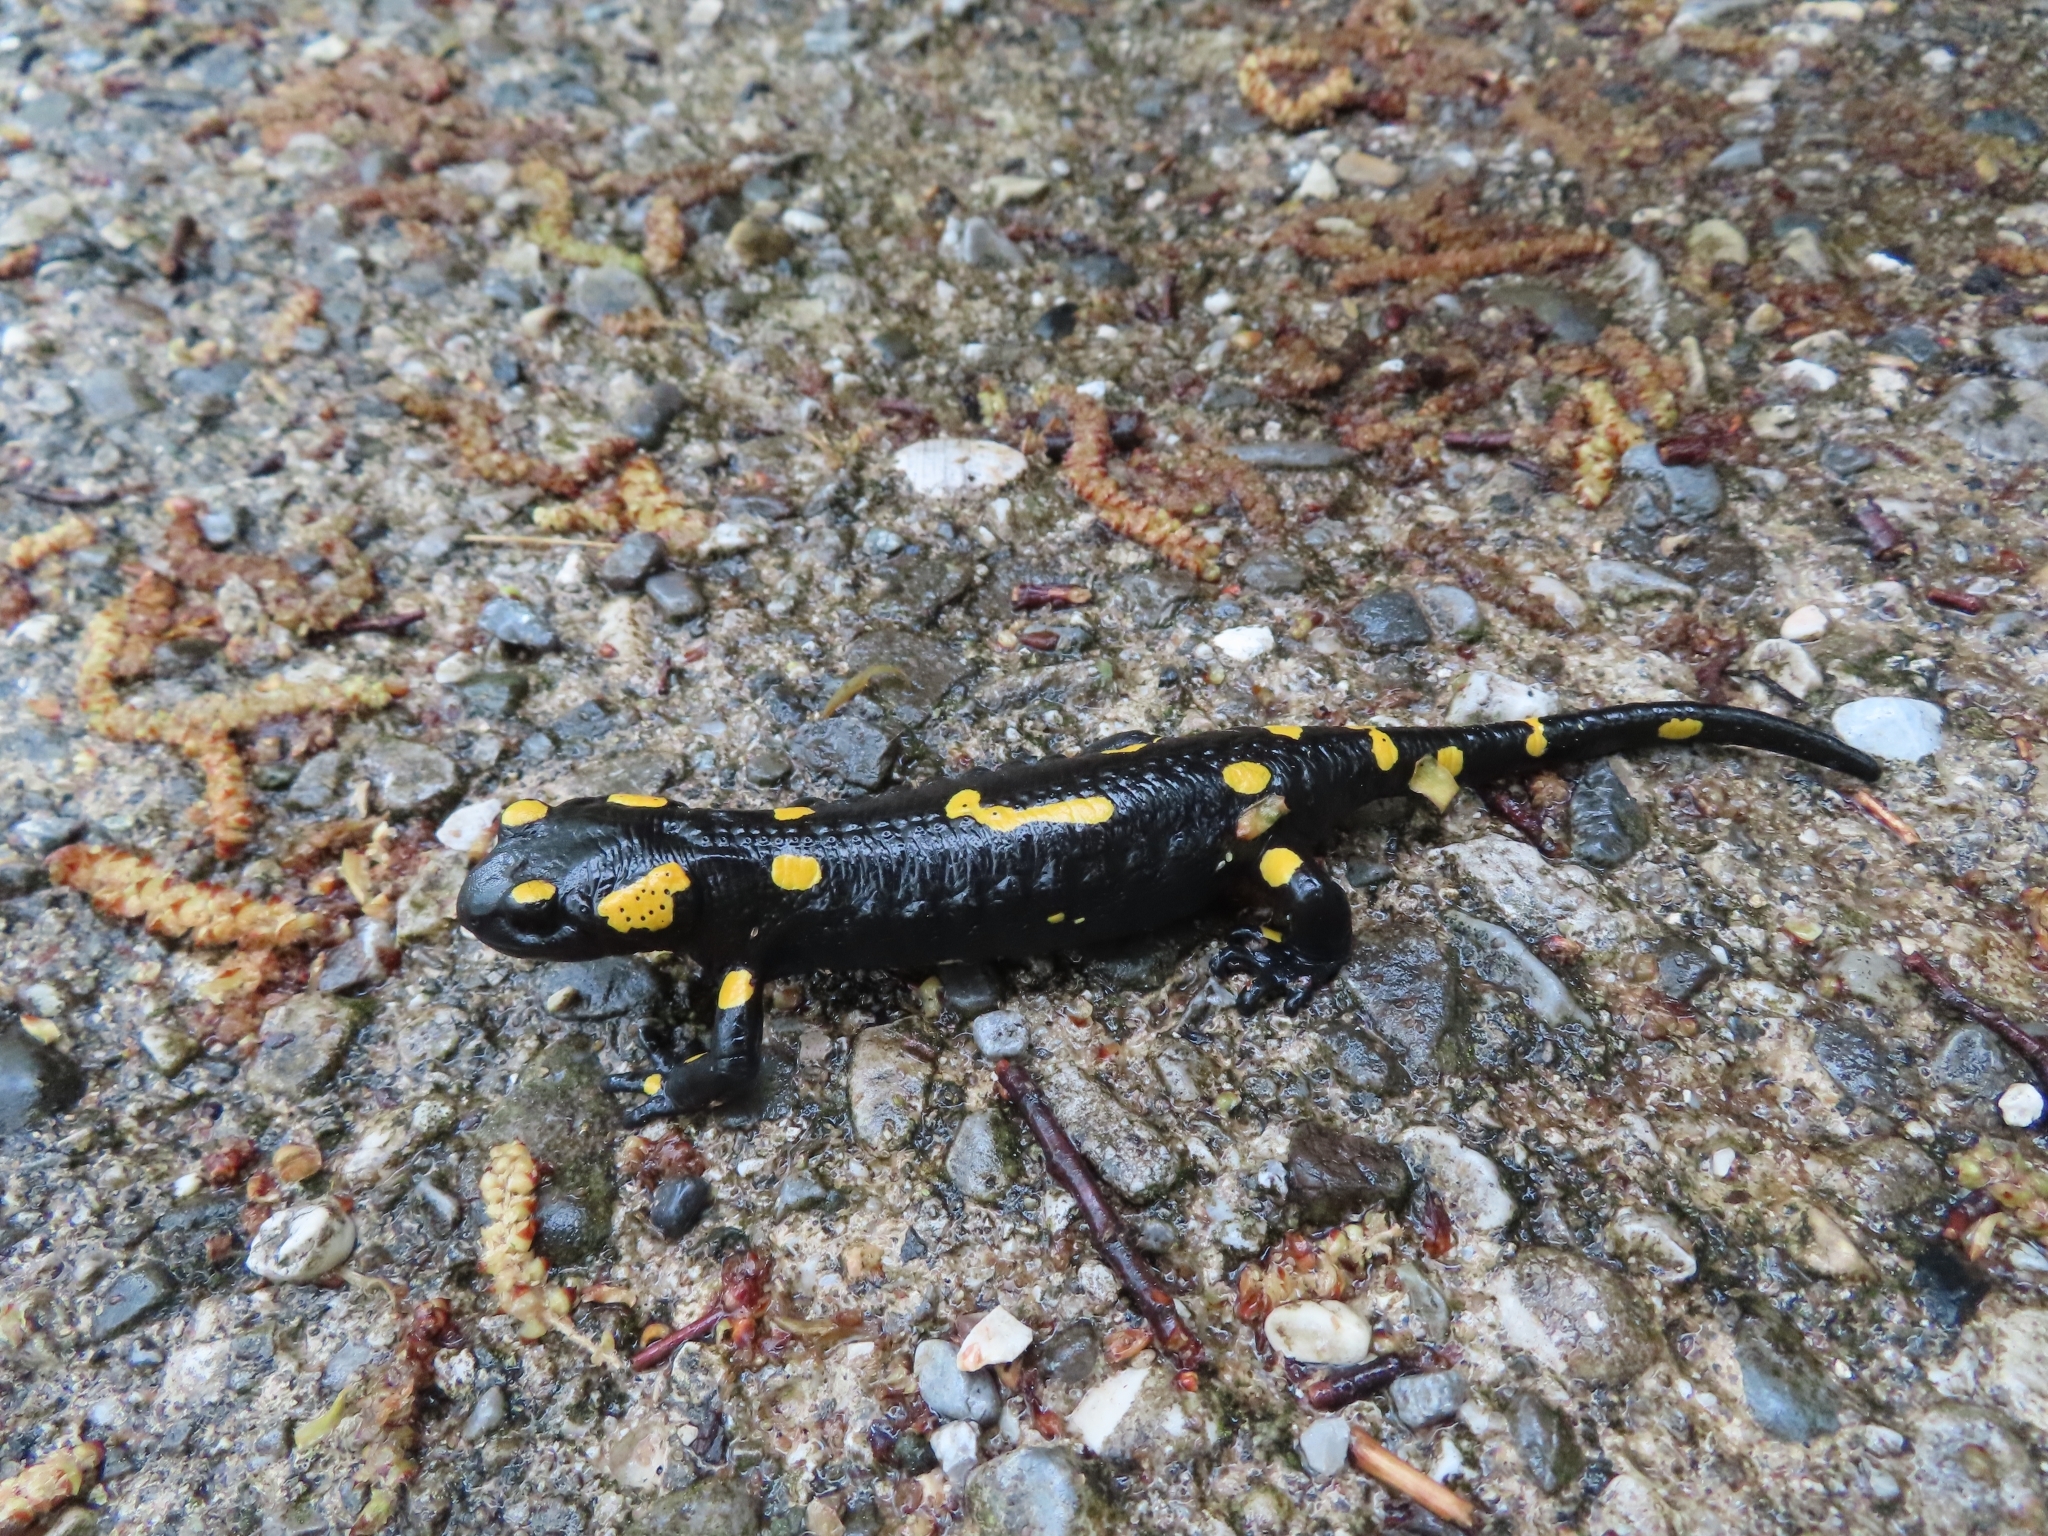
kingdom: Animalia
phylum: Chordata
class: Amphibia
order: Caudata
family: Salamandridae
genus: Salamandra
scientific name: Salamandra salamandra
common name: Fire salamander
